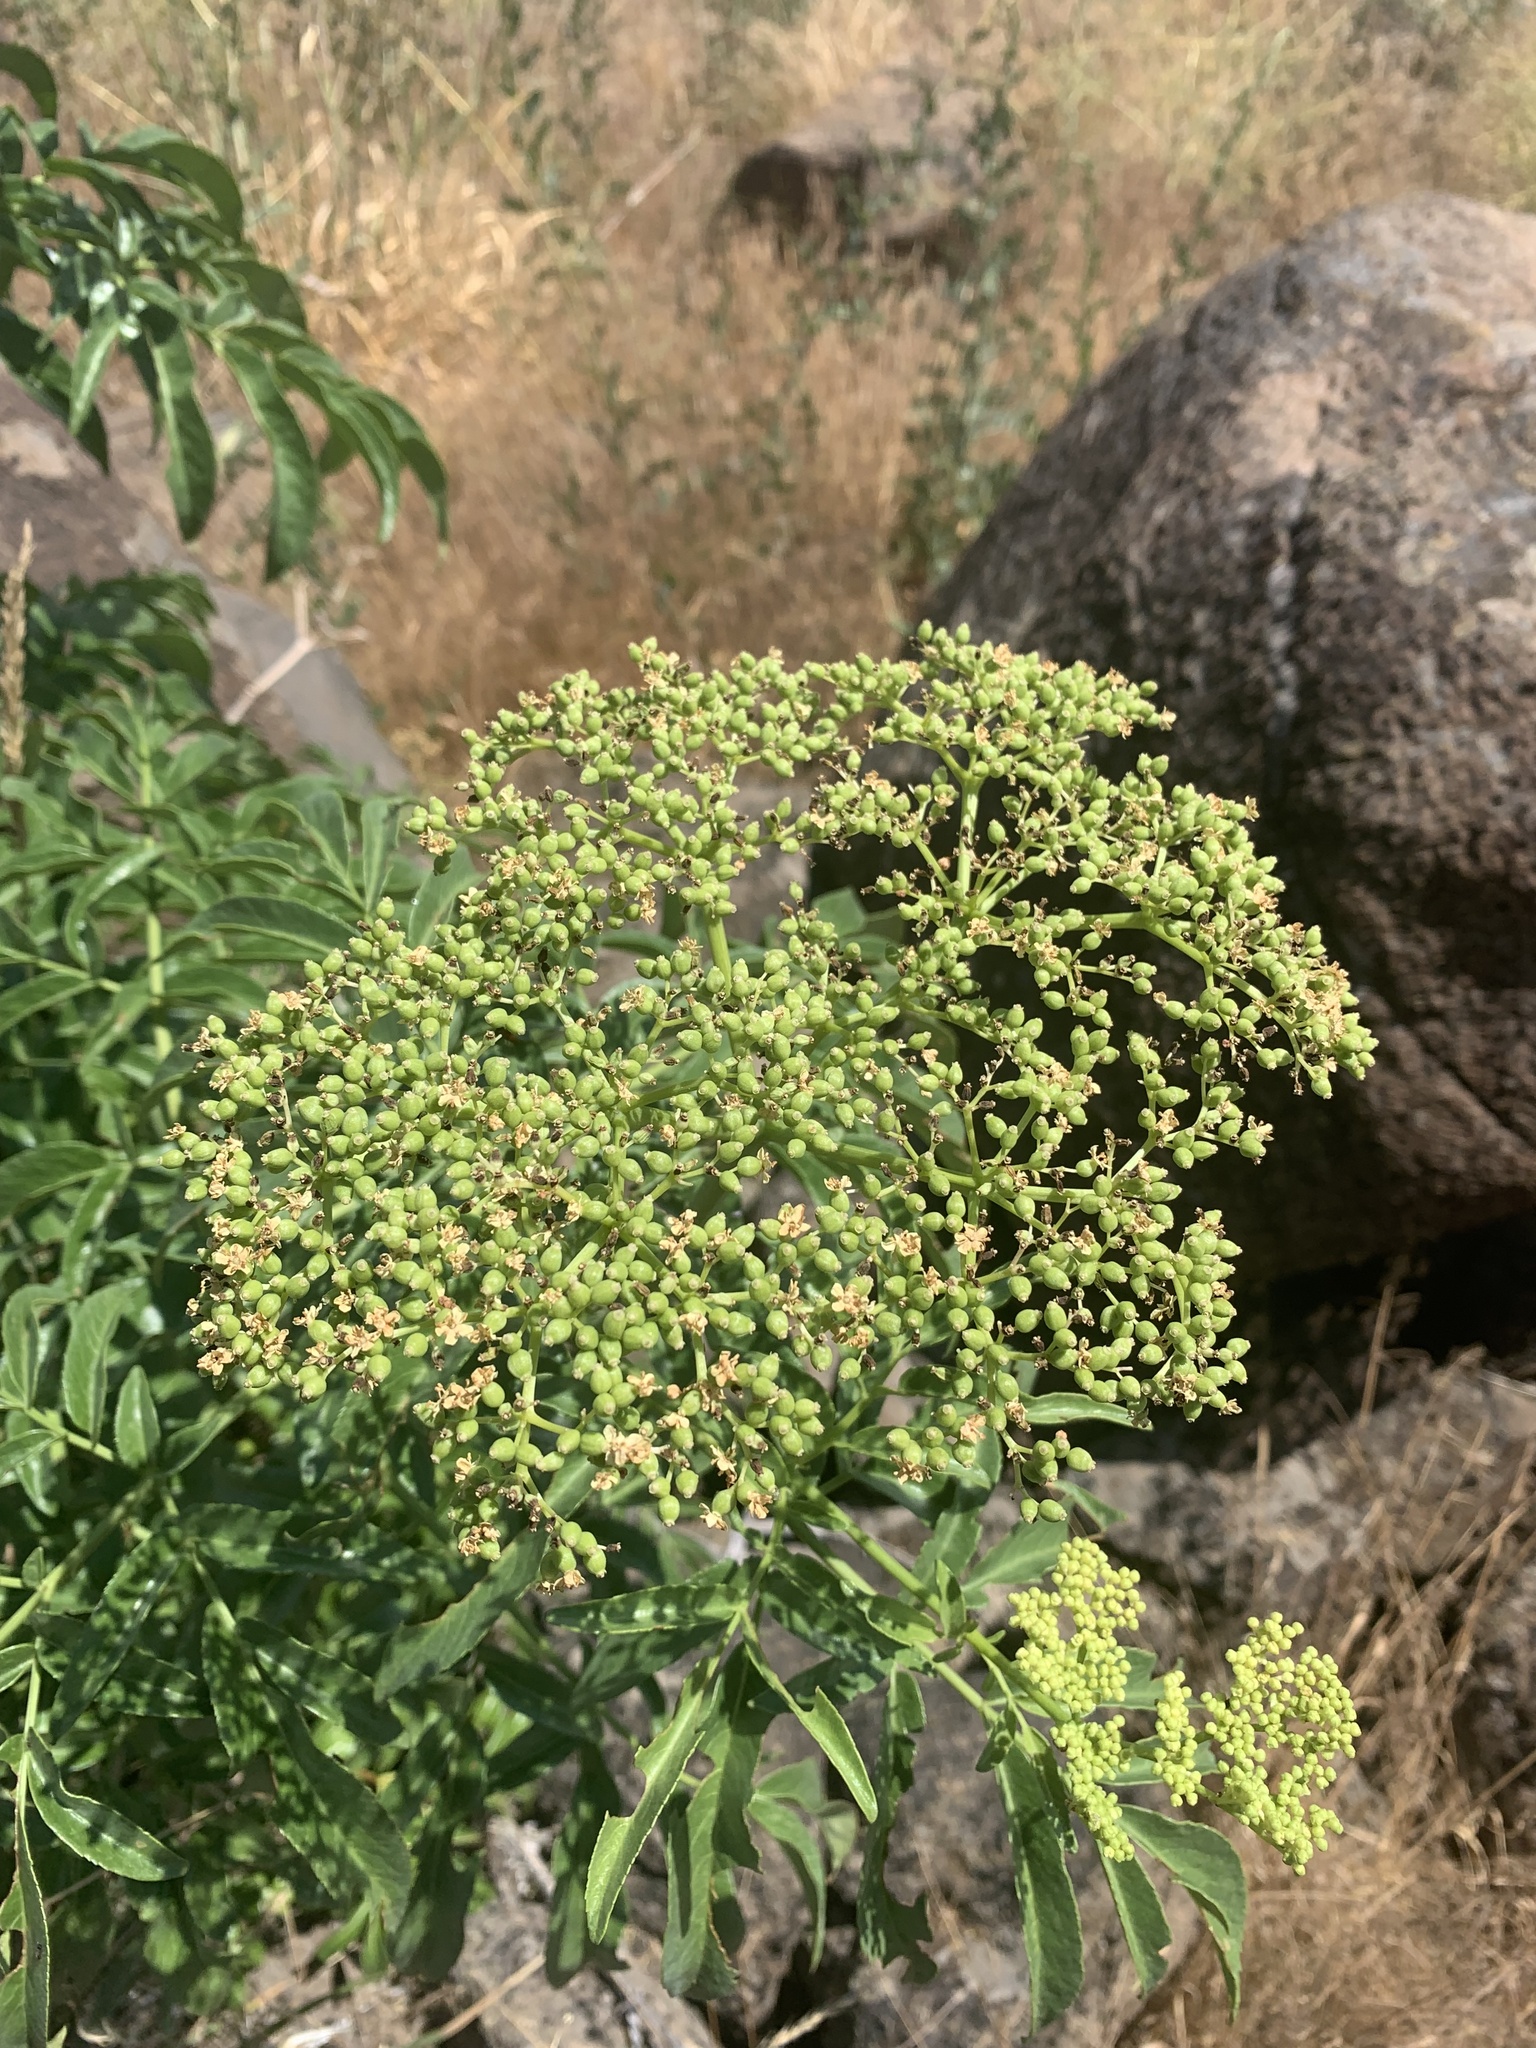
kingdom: Plantae
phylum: Tracheophyta
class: Magnoliopsida
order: Dipsacales
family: Viburnaceae
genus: Sambucus
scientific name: Sambucus cerulea
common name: Blue elder
